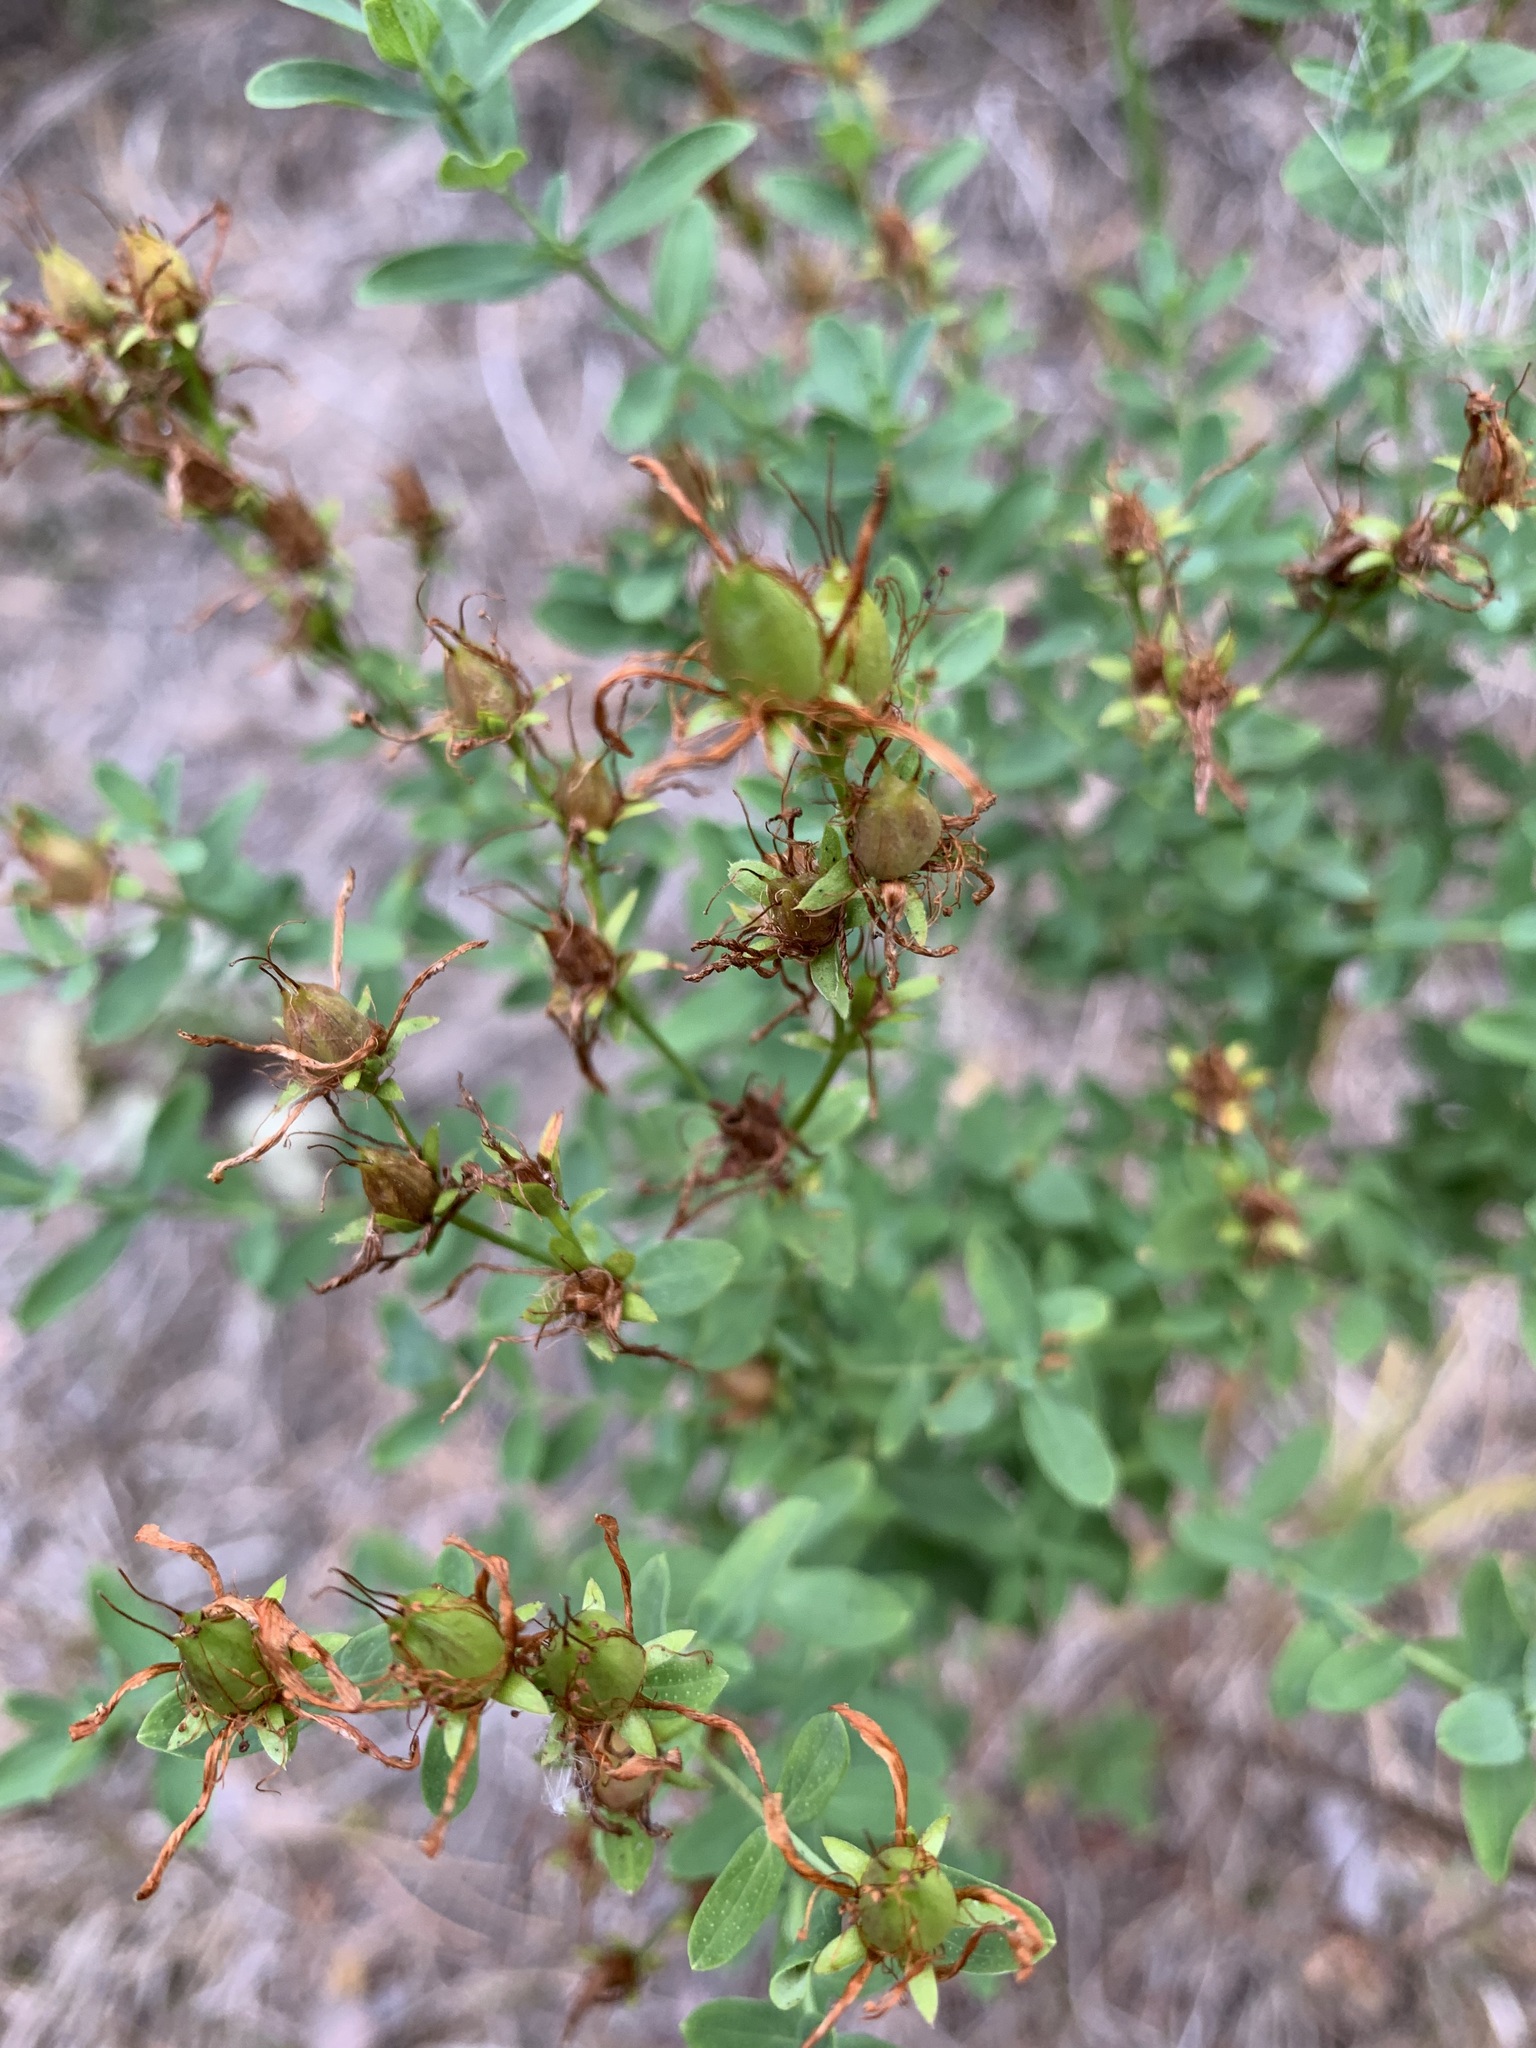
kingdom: Plantae
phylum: Tracheophyta
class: Magnoliopsida
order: Malpighiales
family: Hypericaceae
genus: Hypericum
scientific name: Hypericum perforatum
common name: Common st. johnswort
